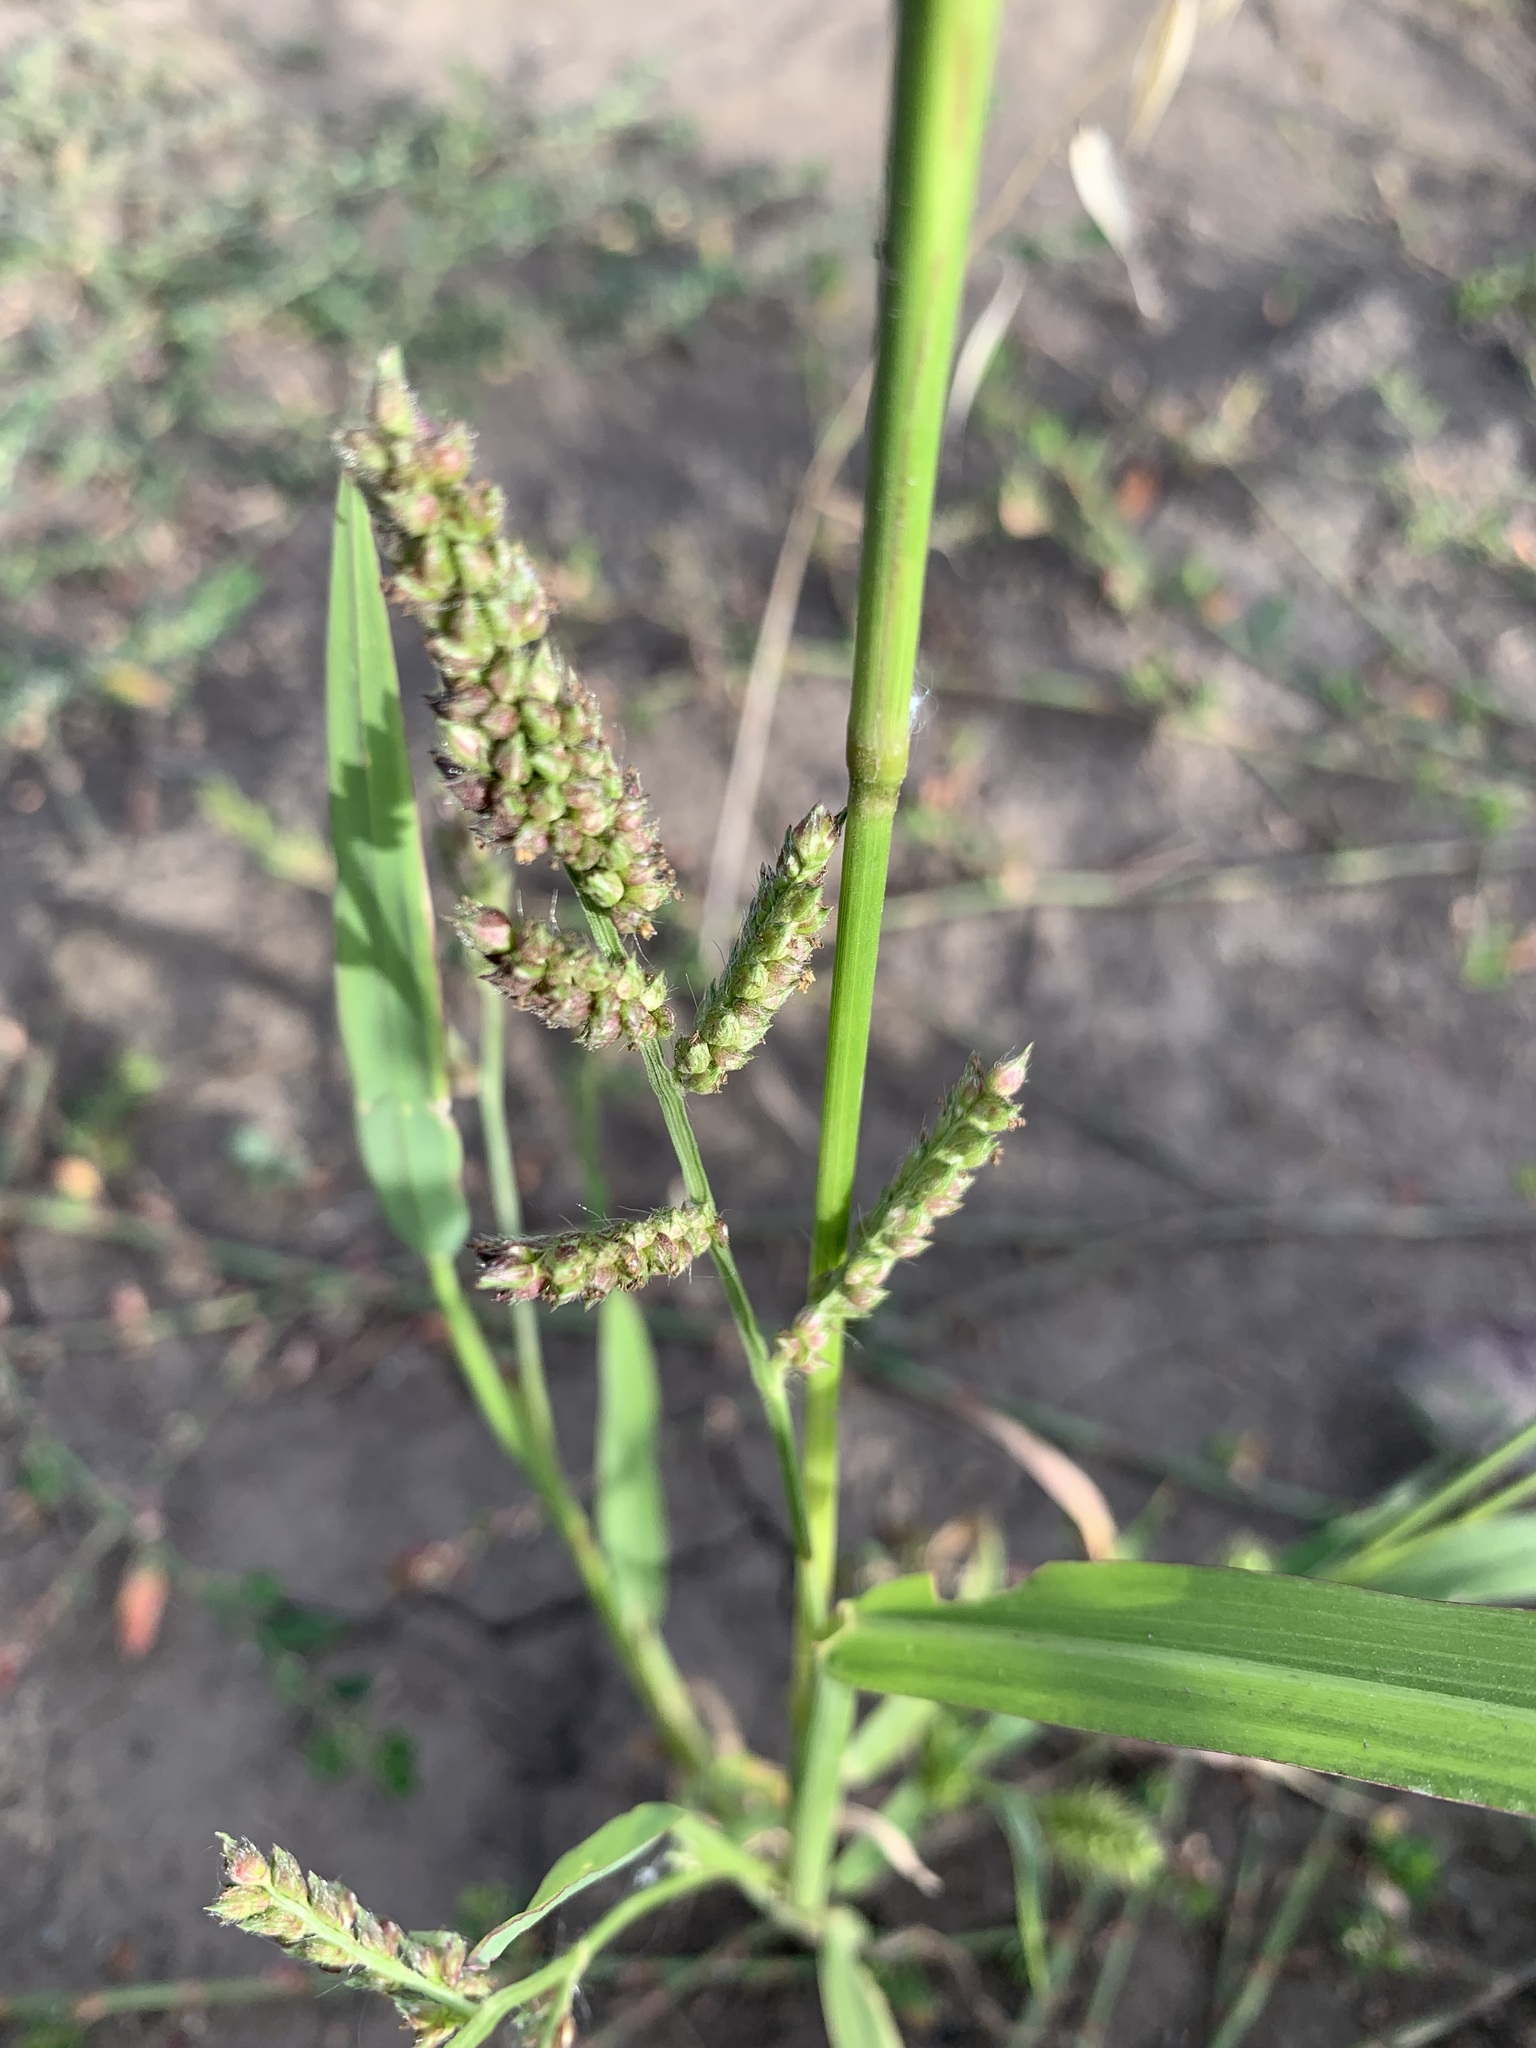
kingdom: Plantae
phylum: Tracheophyta
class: Liliopsida
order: Poales
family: Poaceae
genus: Echinochloa
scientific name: Echinochloa crus-galli
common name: Cockspur
